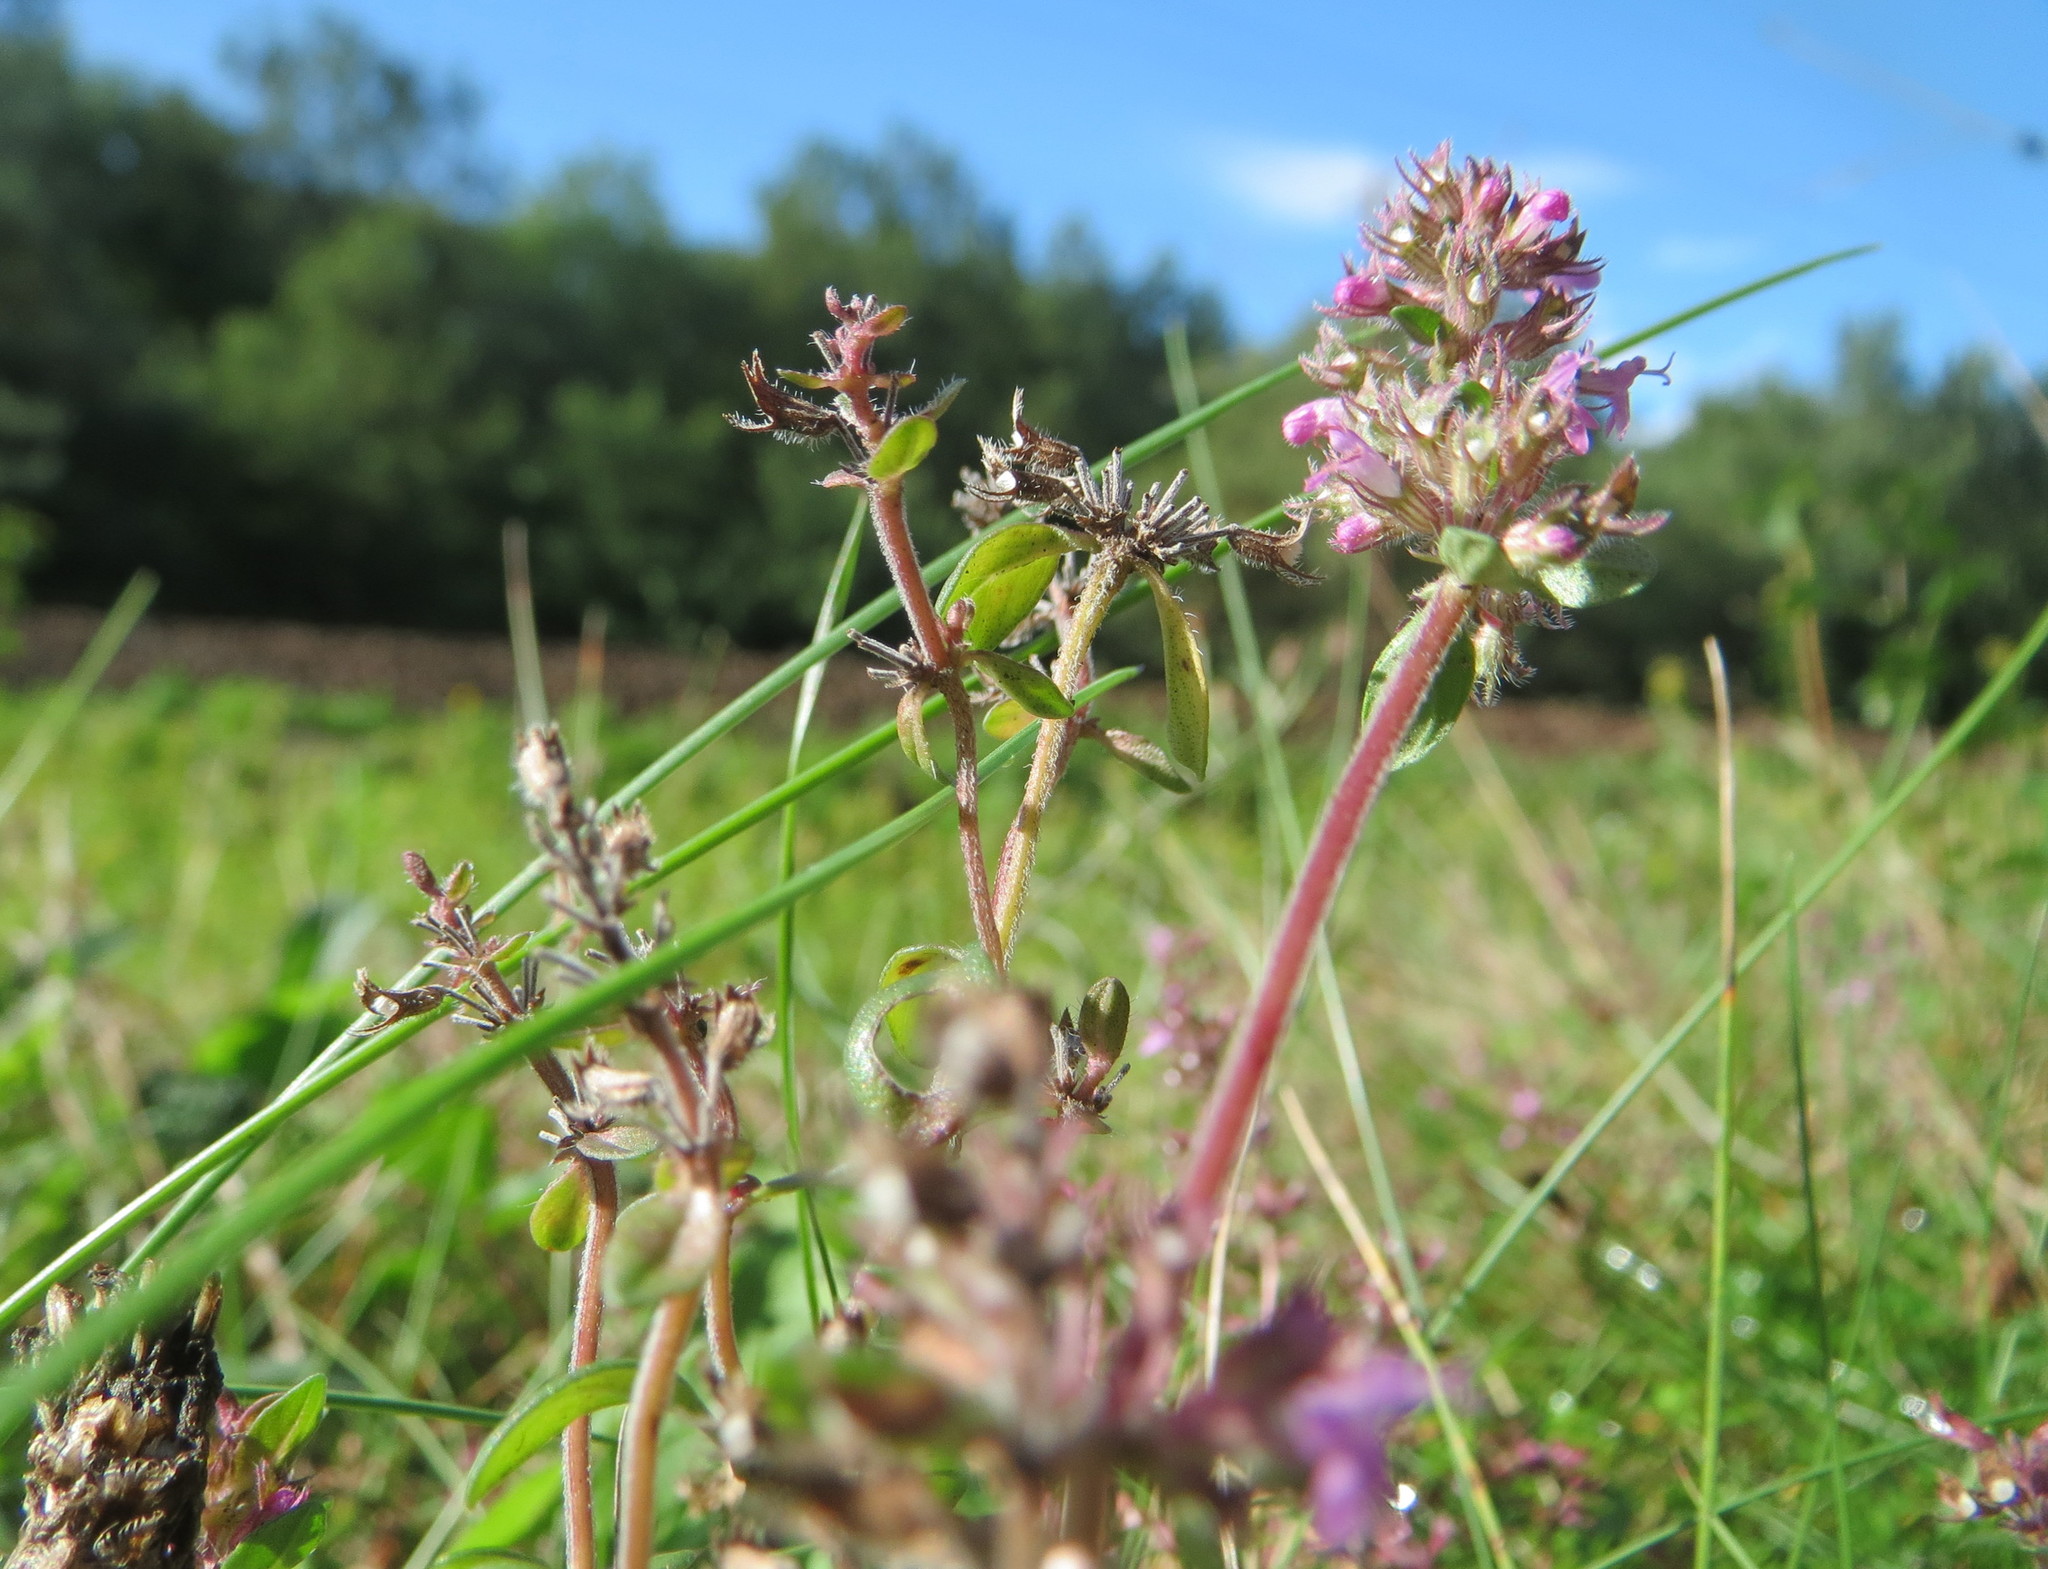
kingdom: Plantae
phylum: Tracheophyta
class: Magnoliopsida
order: Lamiales
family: Lamiaceae
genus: Thymus
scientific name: Thymus pulegioides
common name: Large thyme
